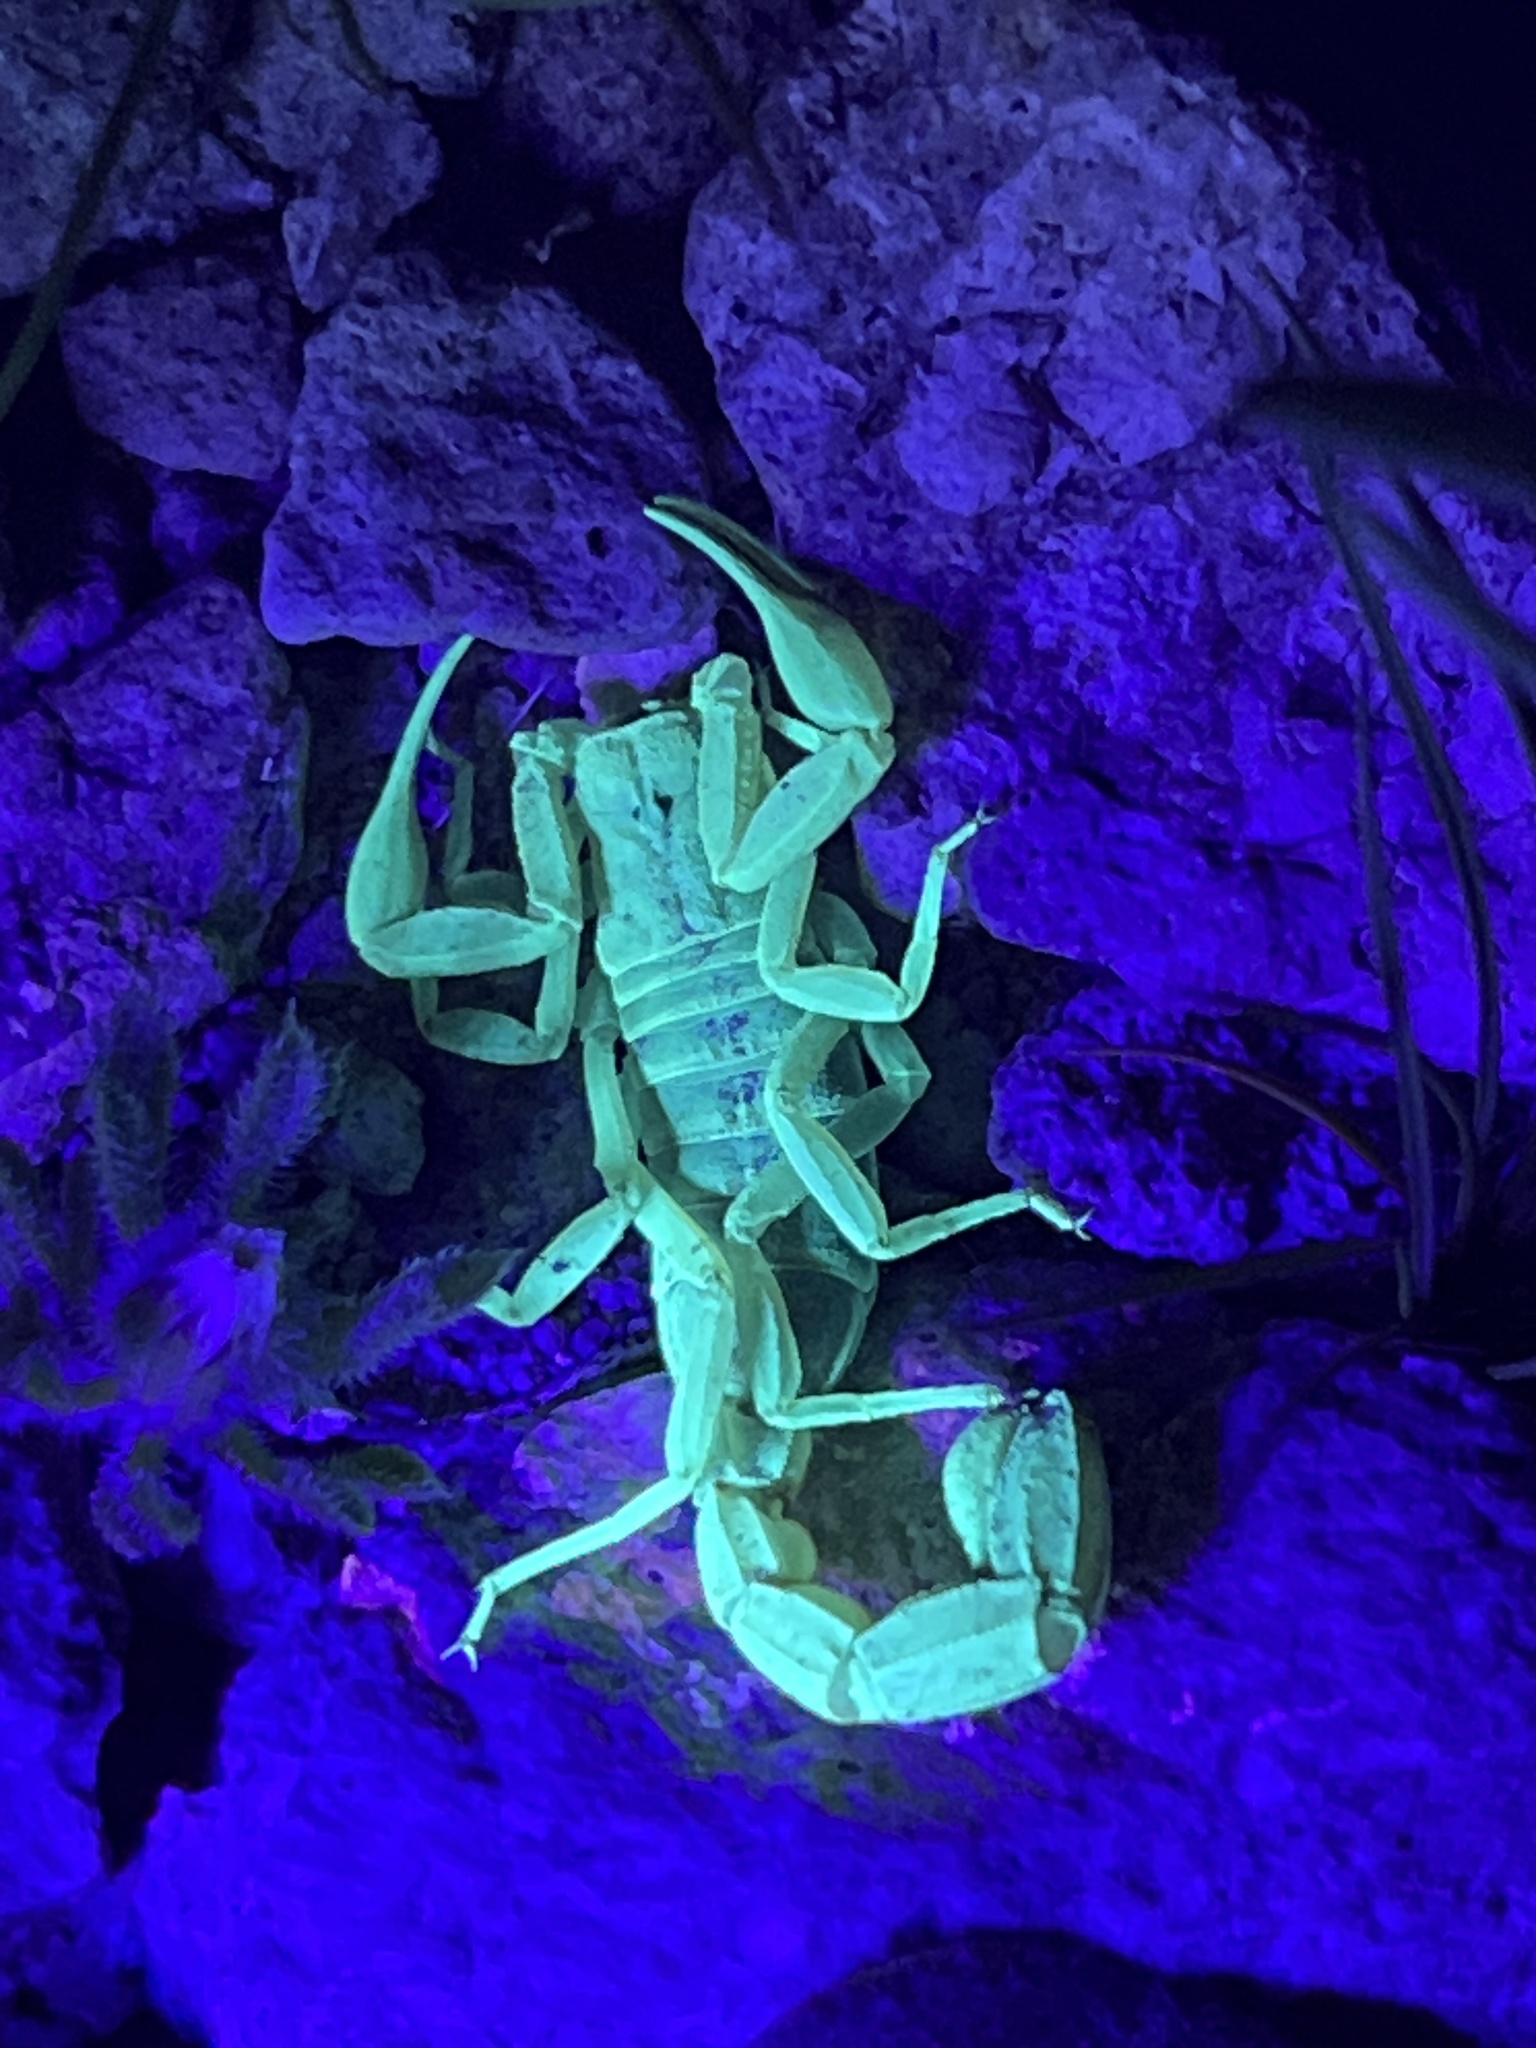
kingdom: Animalia
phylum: Arthropoda
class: Arachnida
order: Scorpiones
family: Vaejovidae
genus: Paravaejovis
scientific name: Paravaejovis confusus
